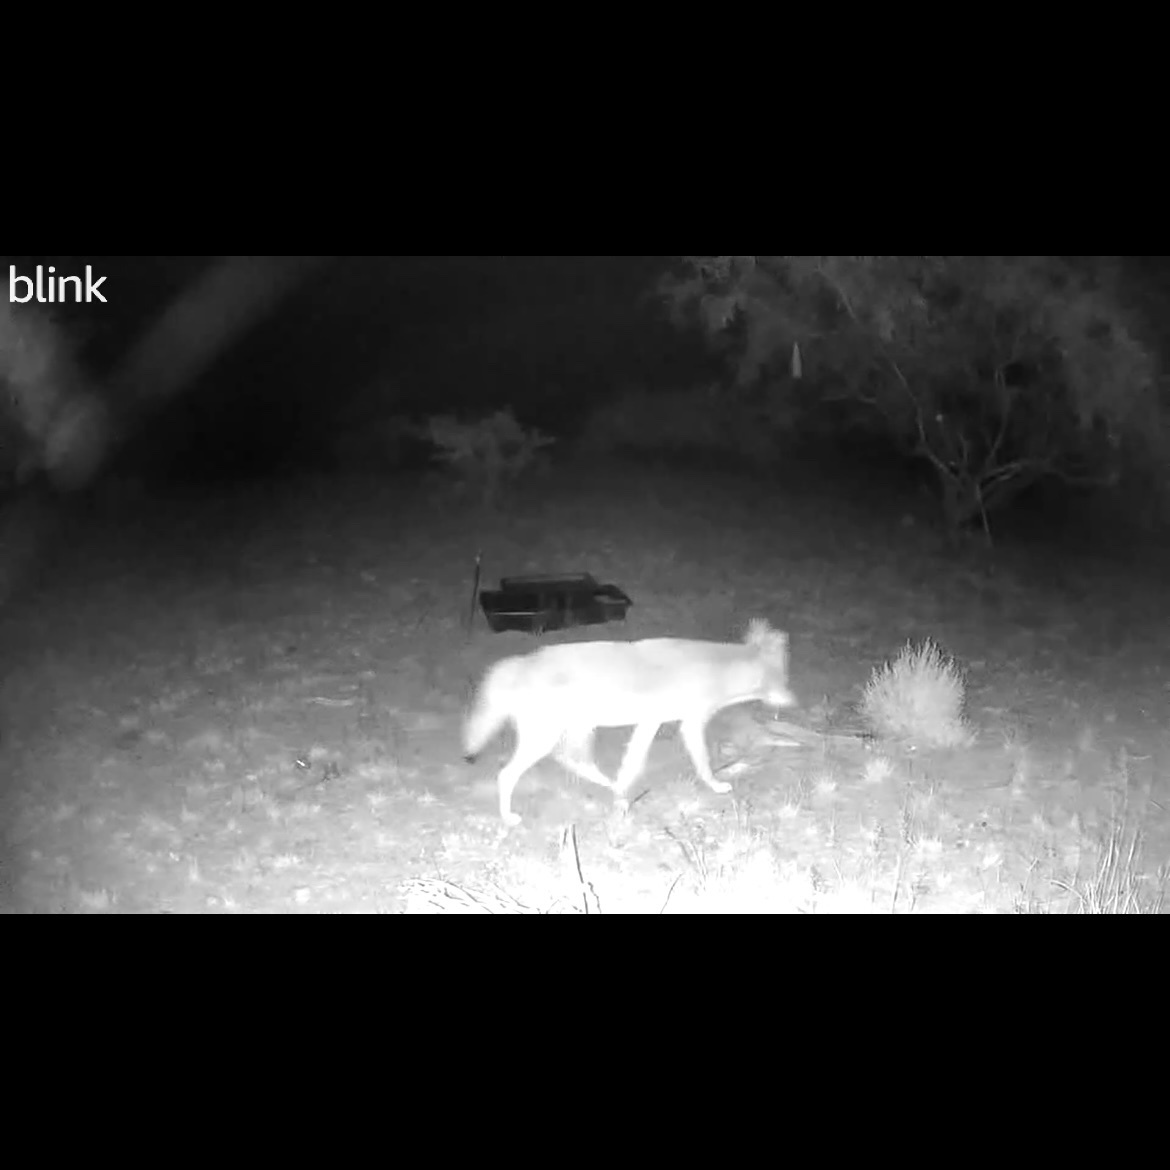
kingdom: Animalia
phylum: Chordata
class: Mammalia
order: Carnivora
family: Canidae
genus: Canis
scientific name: Canis latrans
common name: Coyote
